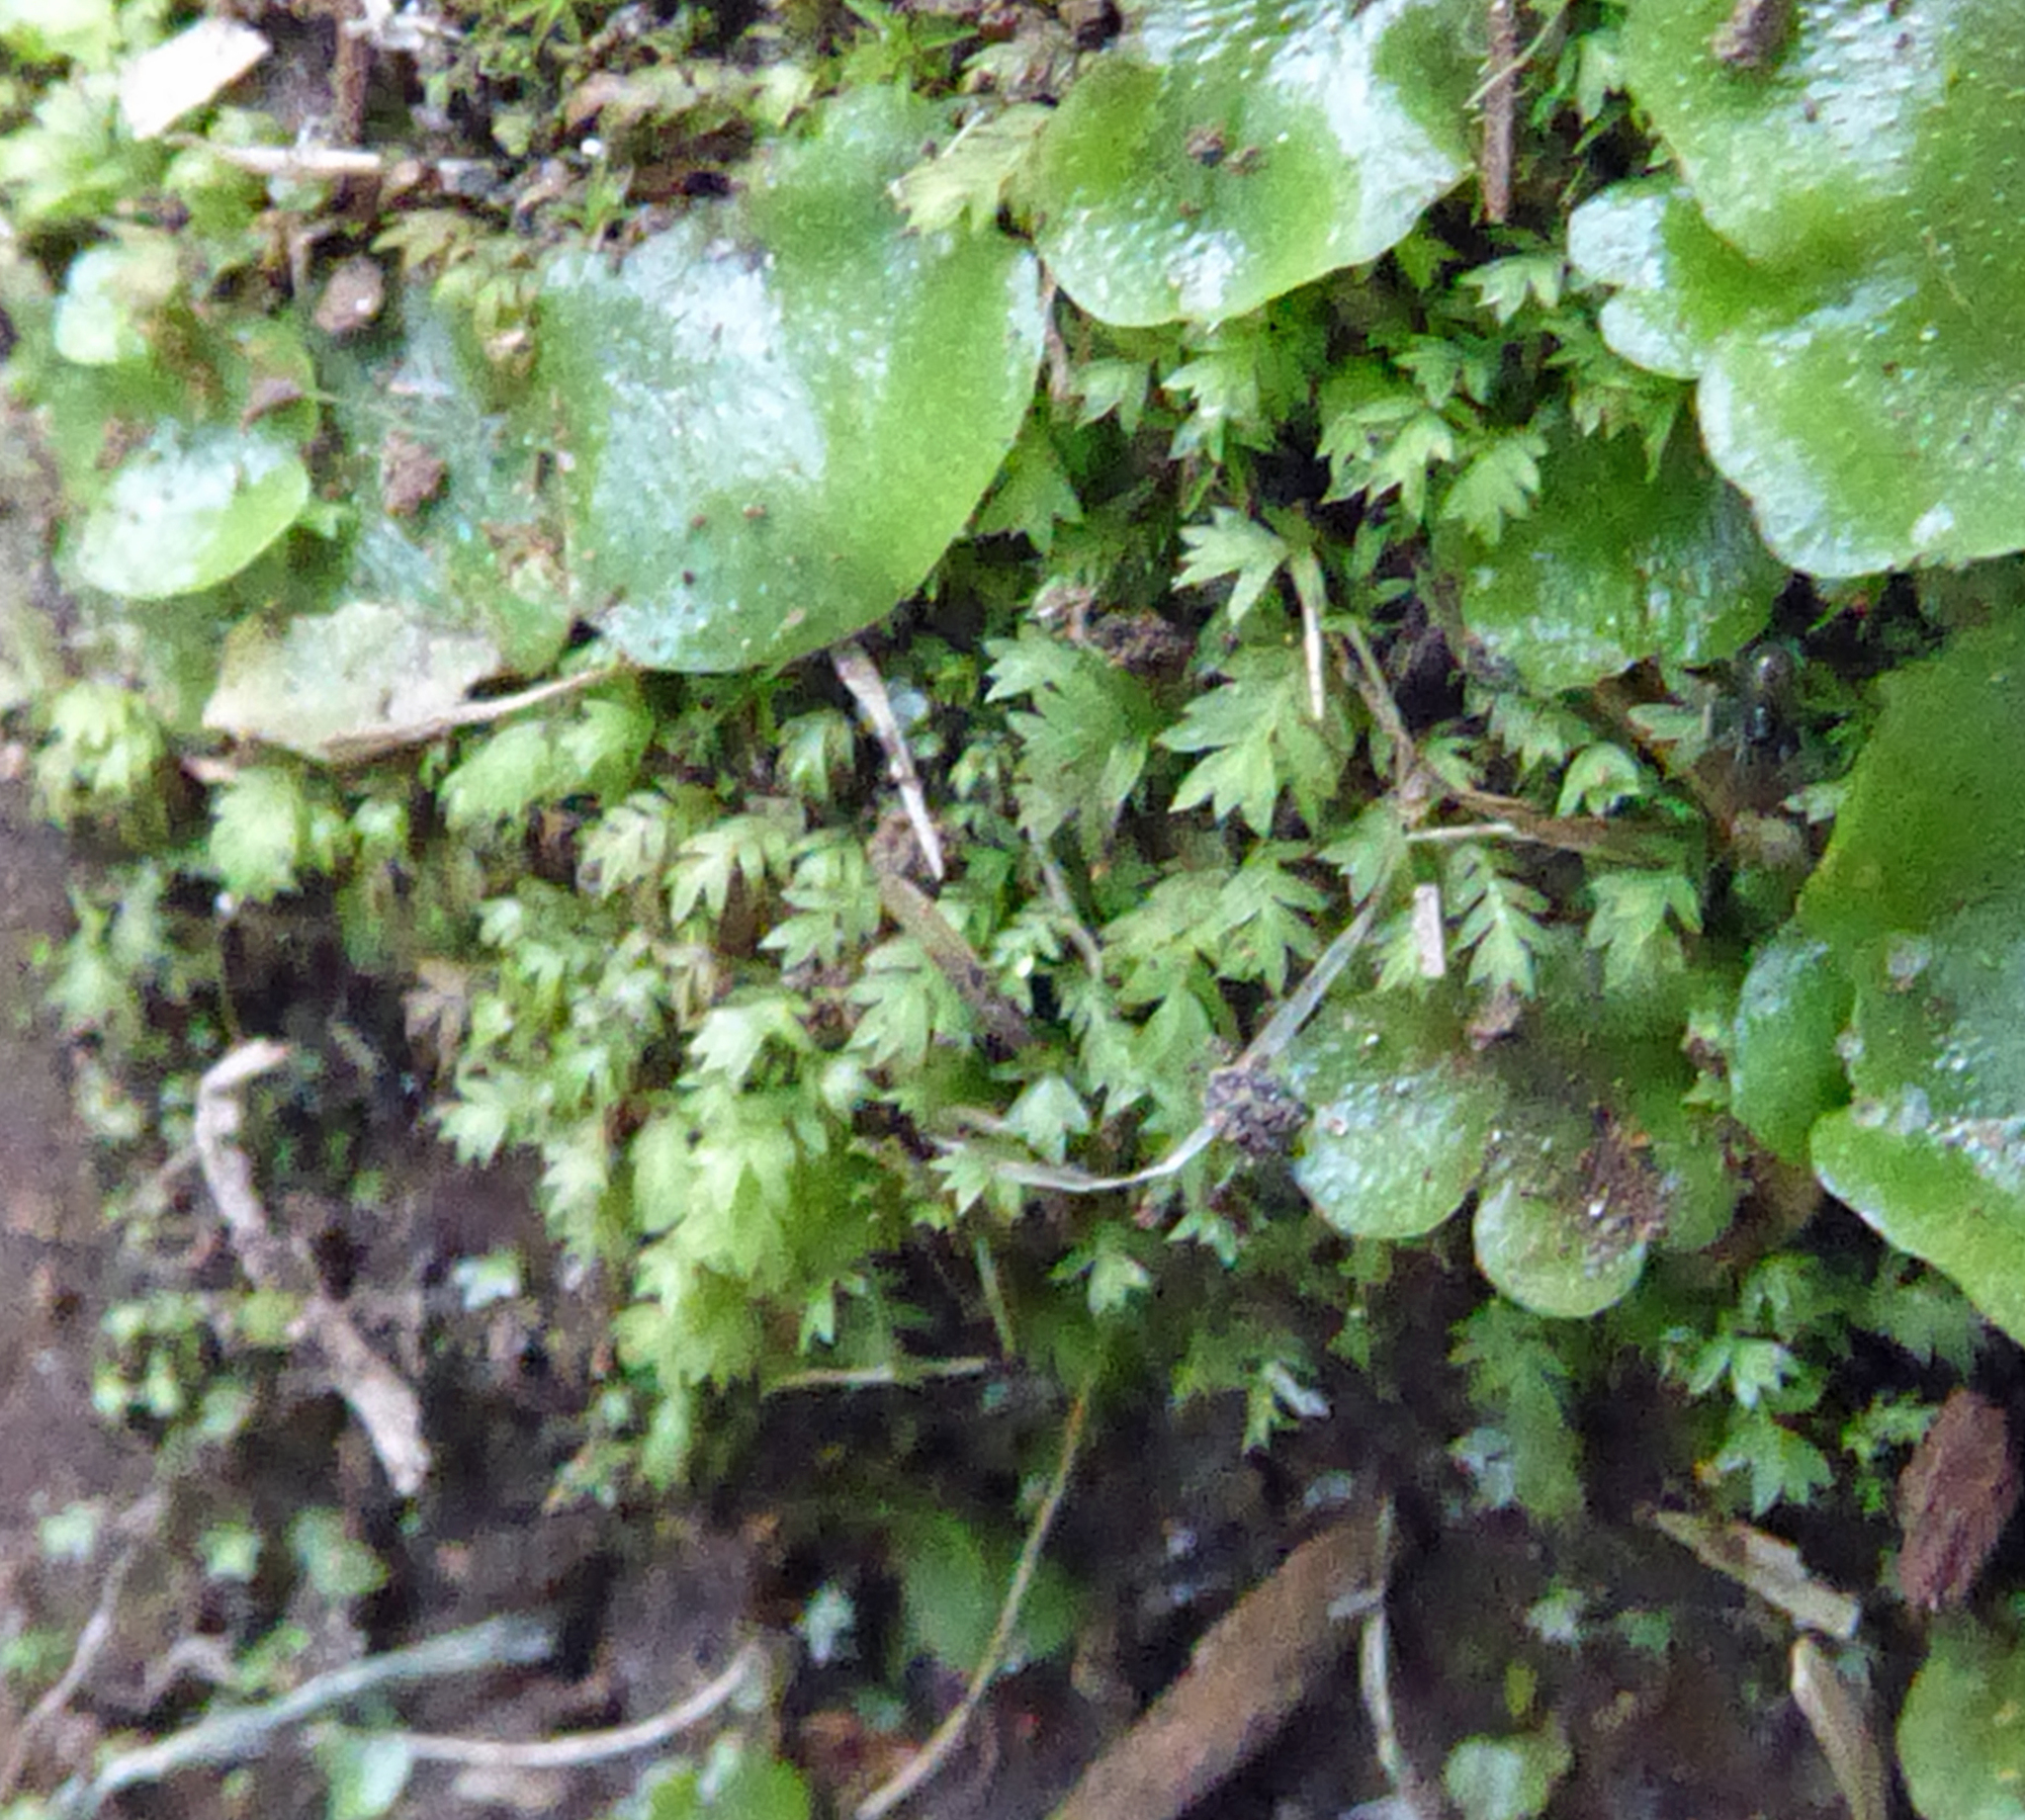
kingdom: Plantae
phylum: Bryophyta
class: Bryopsida
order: Dicranales
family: Fissidentaceae
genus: Fissidens
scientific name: Fissidens bryoides
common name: Lesser pocket moss
